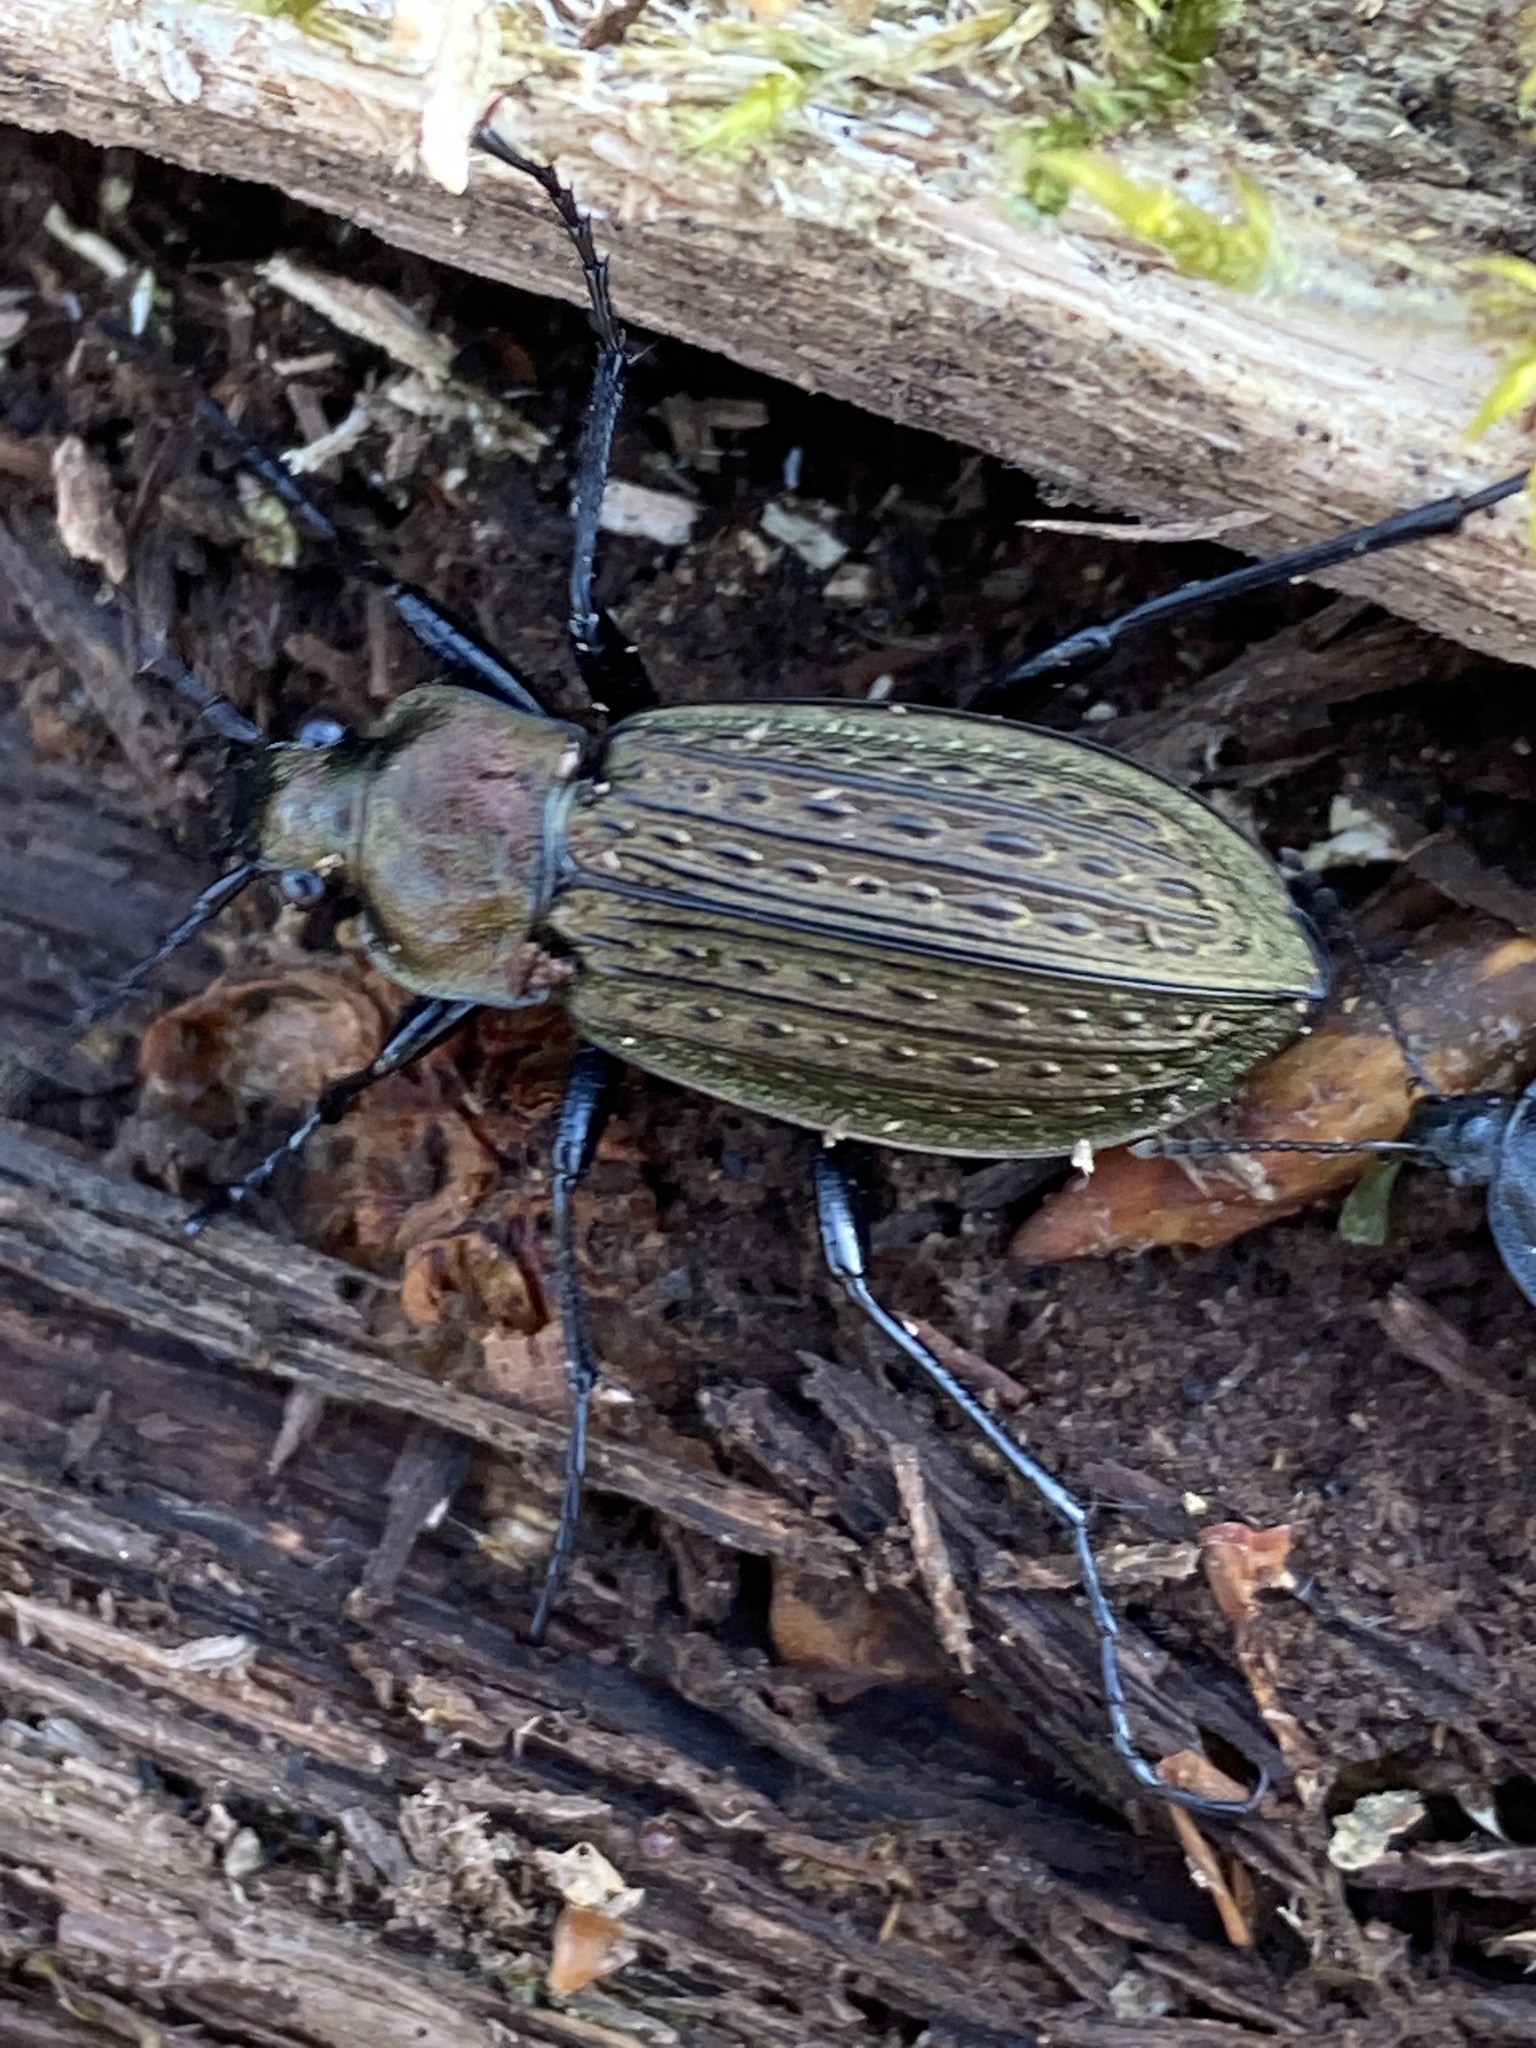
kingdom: Animalia
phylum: Arthropoda
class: Insecta
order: Coleoptera
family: Carabidae
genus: Carabus
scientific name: Carabus granulatus
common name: Granulate ground beetle
